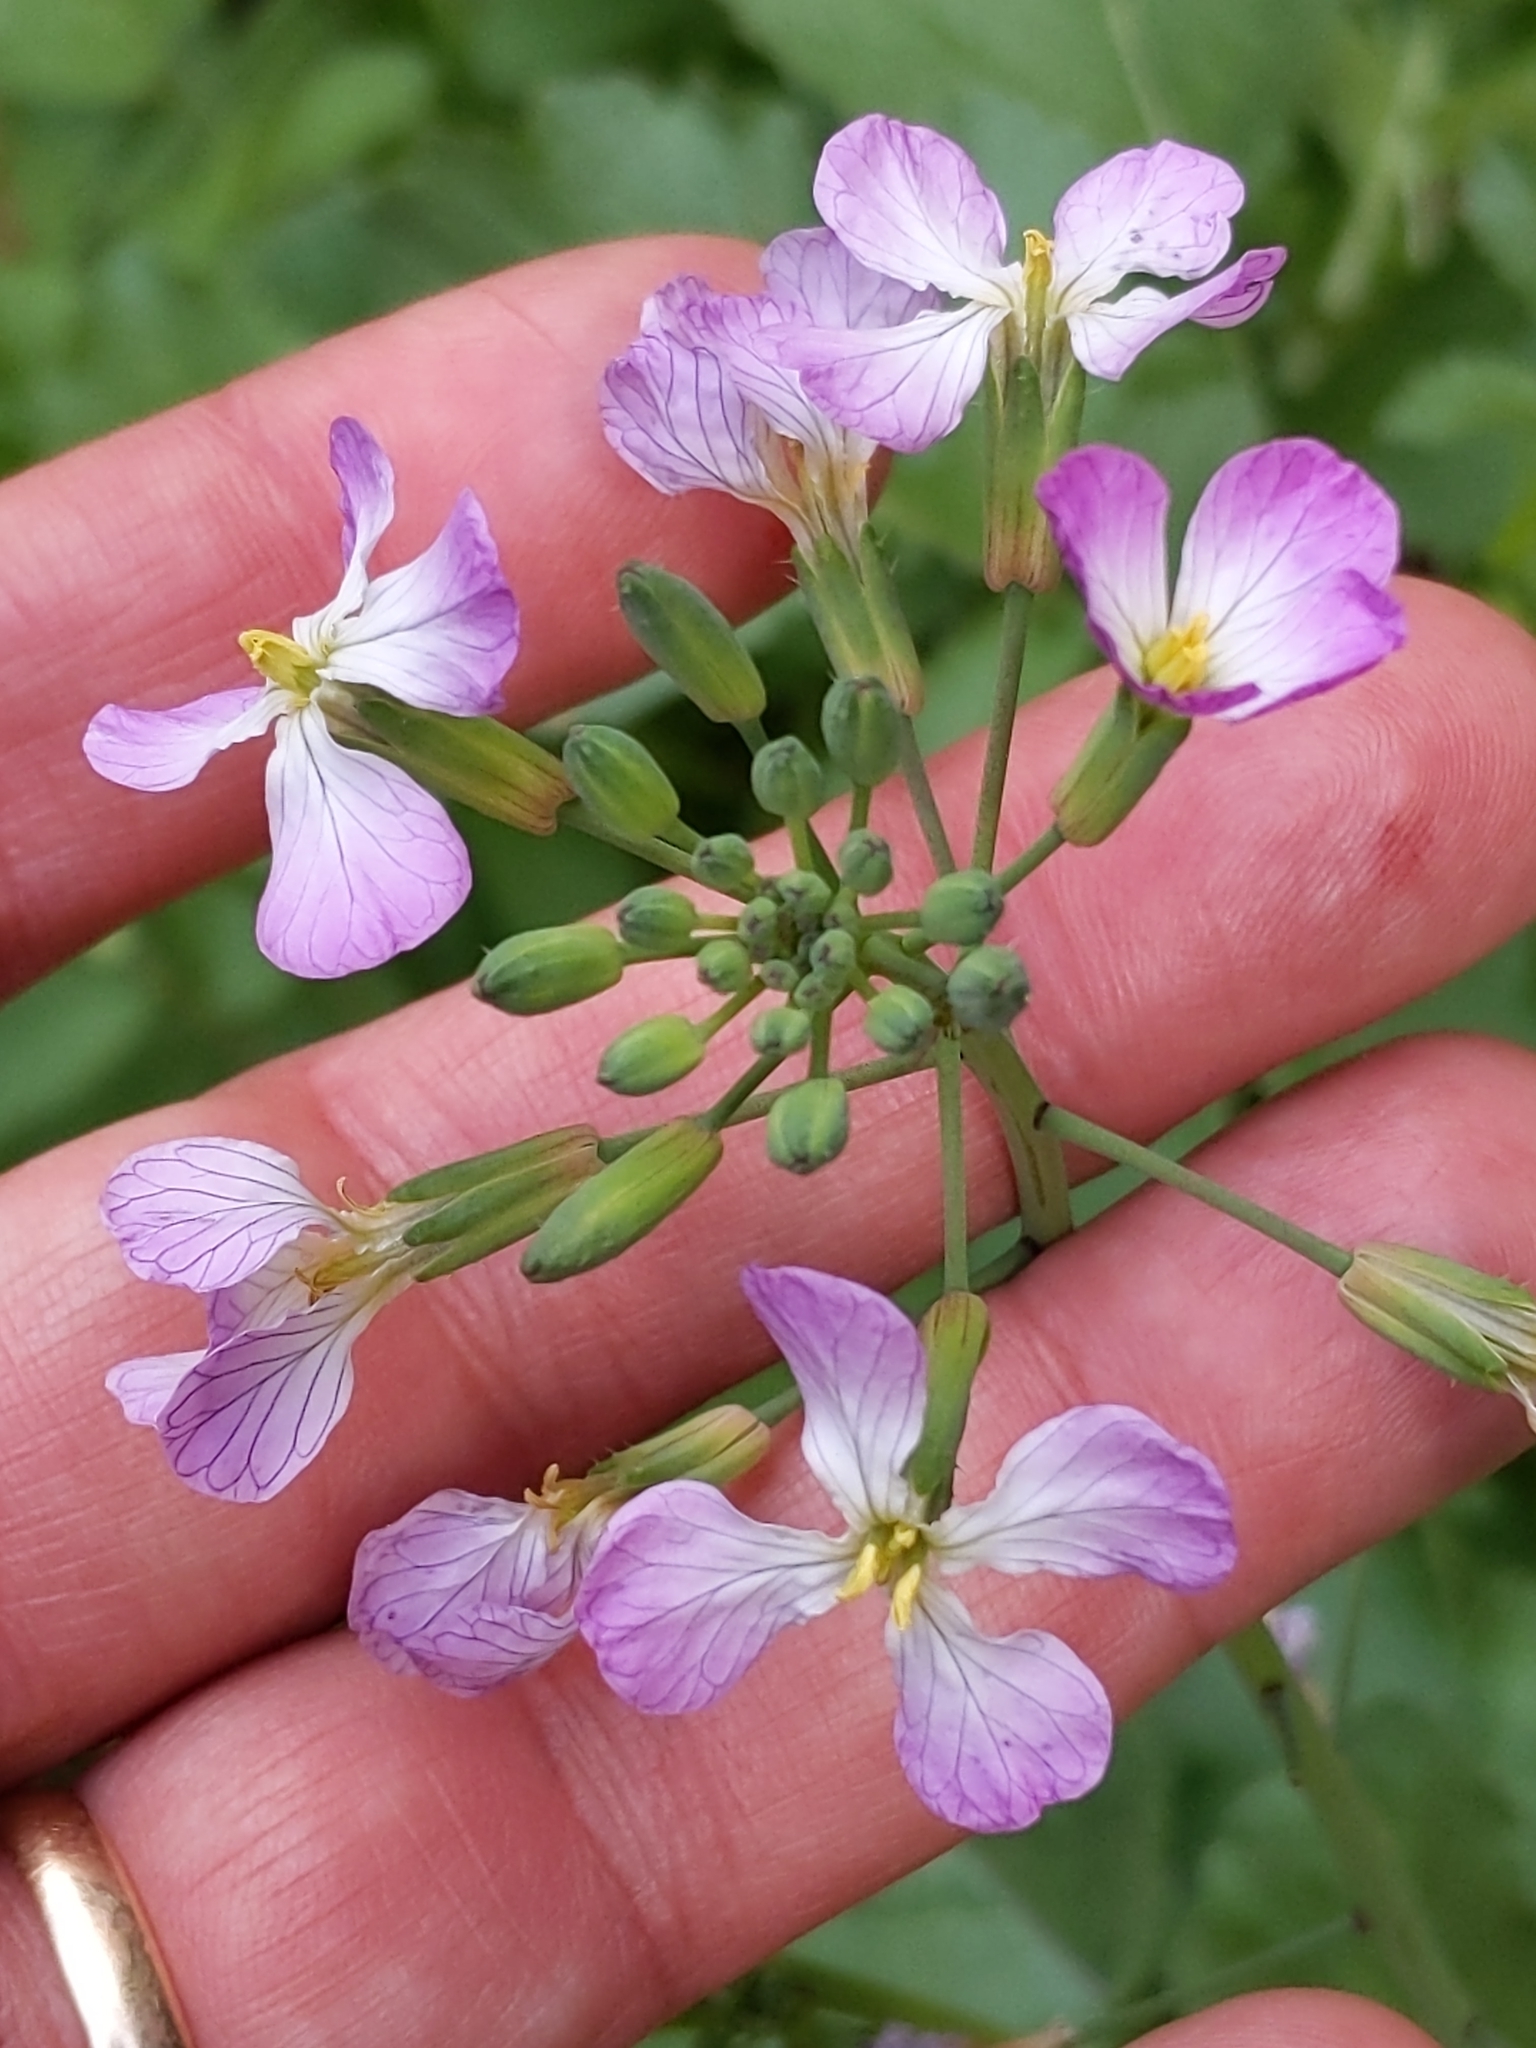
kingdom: Plantae
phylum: Tracheophyta
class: Magnoliopsida
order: Brassicales
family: Brassicaceae
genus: Raphanus
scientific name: Raphanus sativus
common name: Cultivated radish
